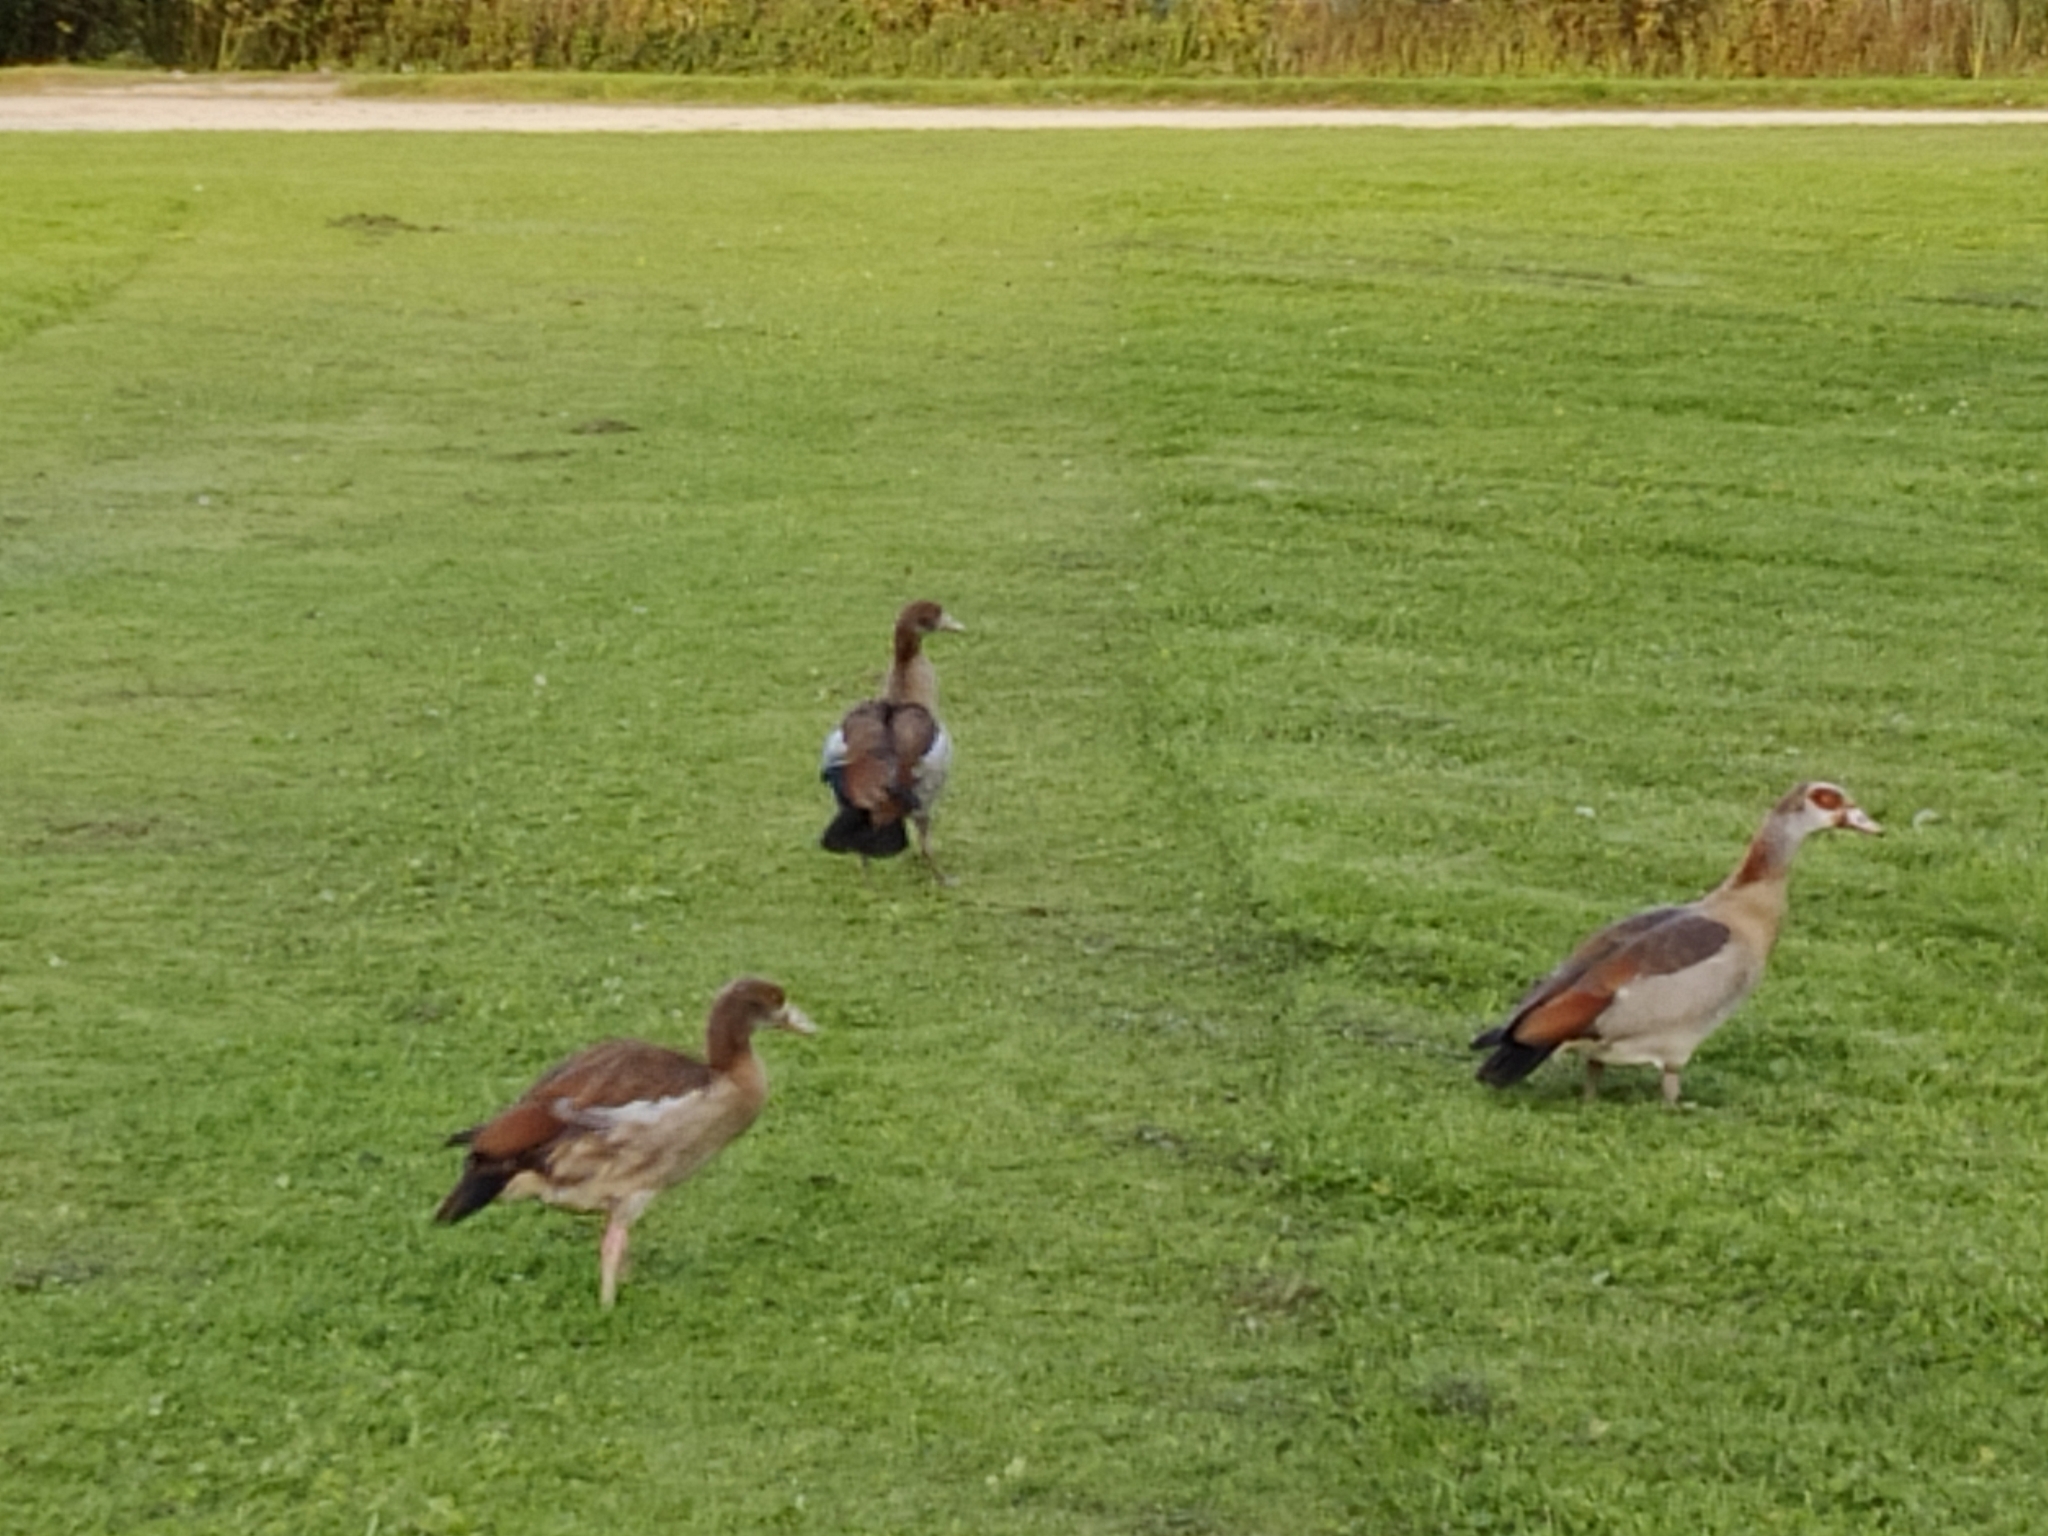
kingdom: Animalia
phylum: Chordata
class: Aves
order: Anseriformes
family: Anatidae
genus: Alopochen
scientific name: Alopochen aegyptiaca
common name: Egyptian goose
